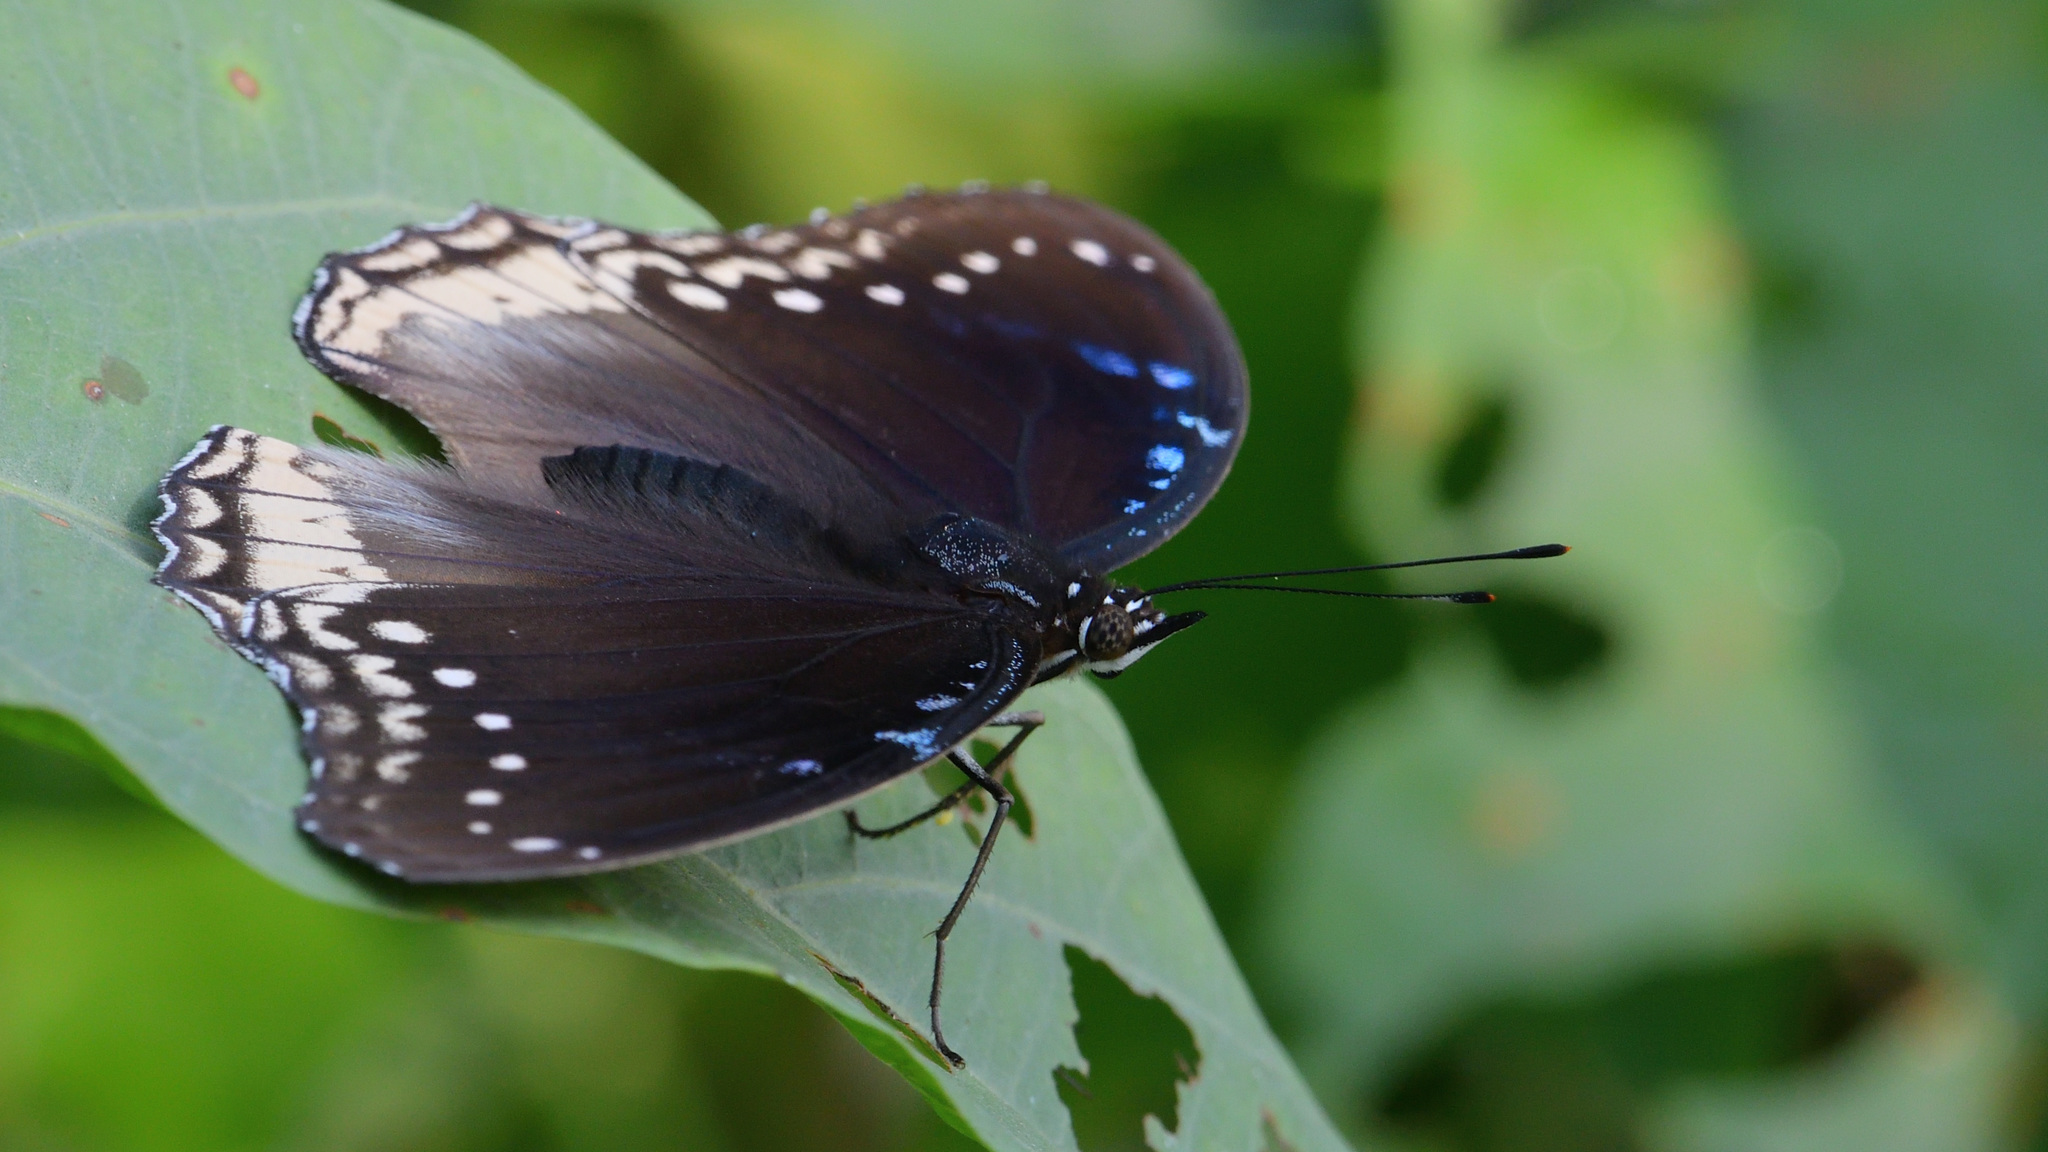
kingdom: Animalia
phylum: Arthropoda
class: Insecta
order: Lepidoptera
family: Nymphalidae
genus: Hypolimnas
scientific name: Hypolimnas bolina
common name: Great eggfly
